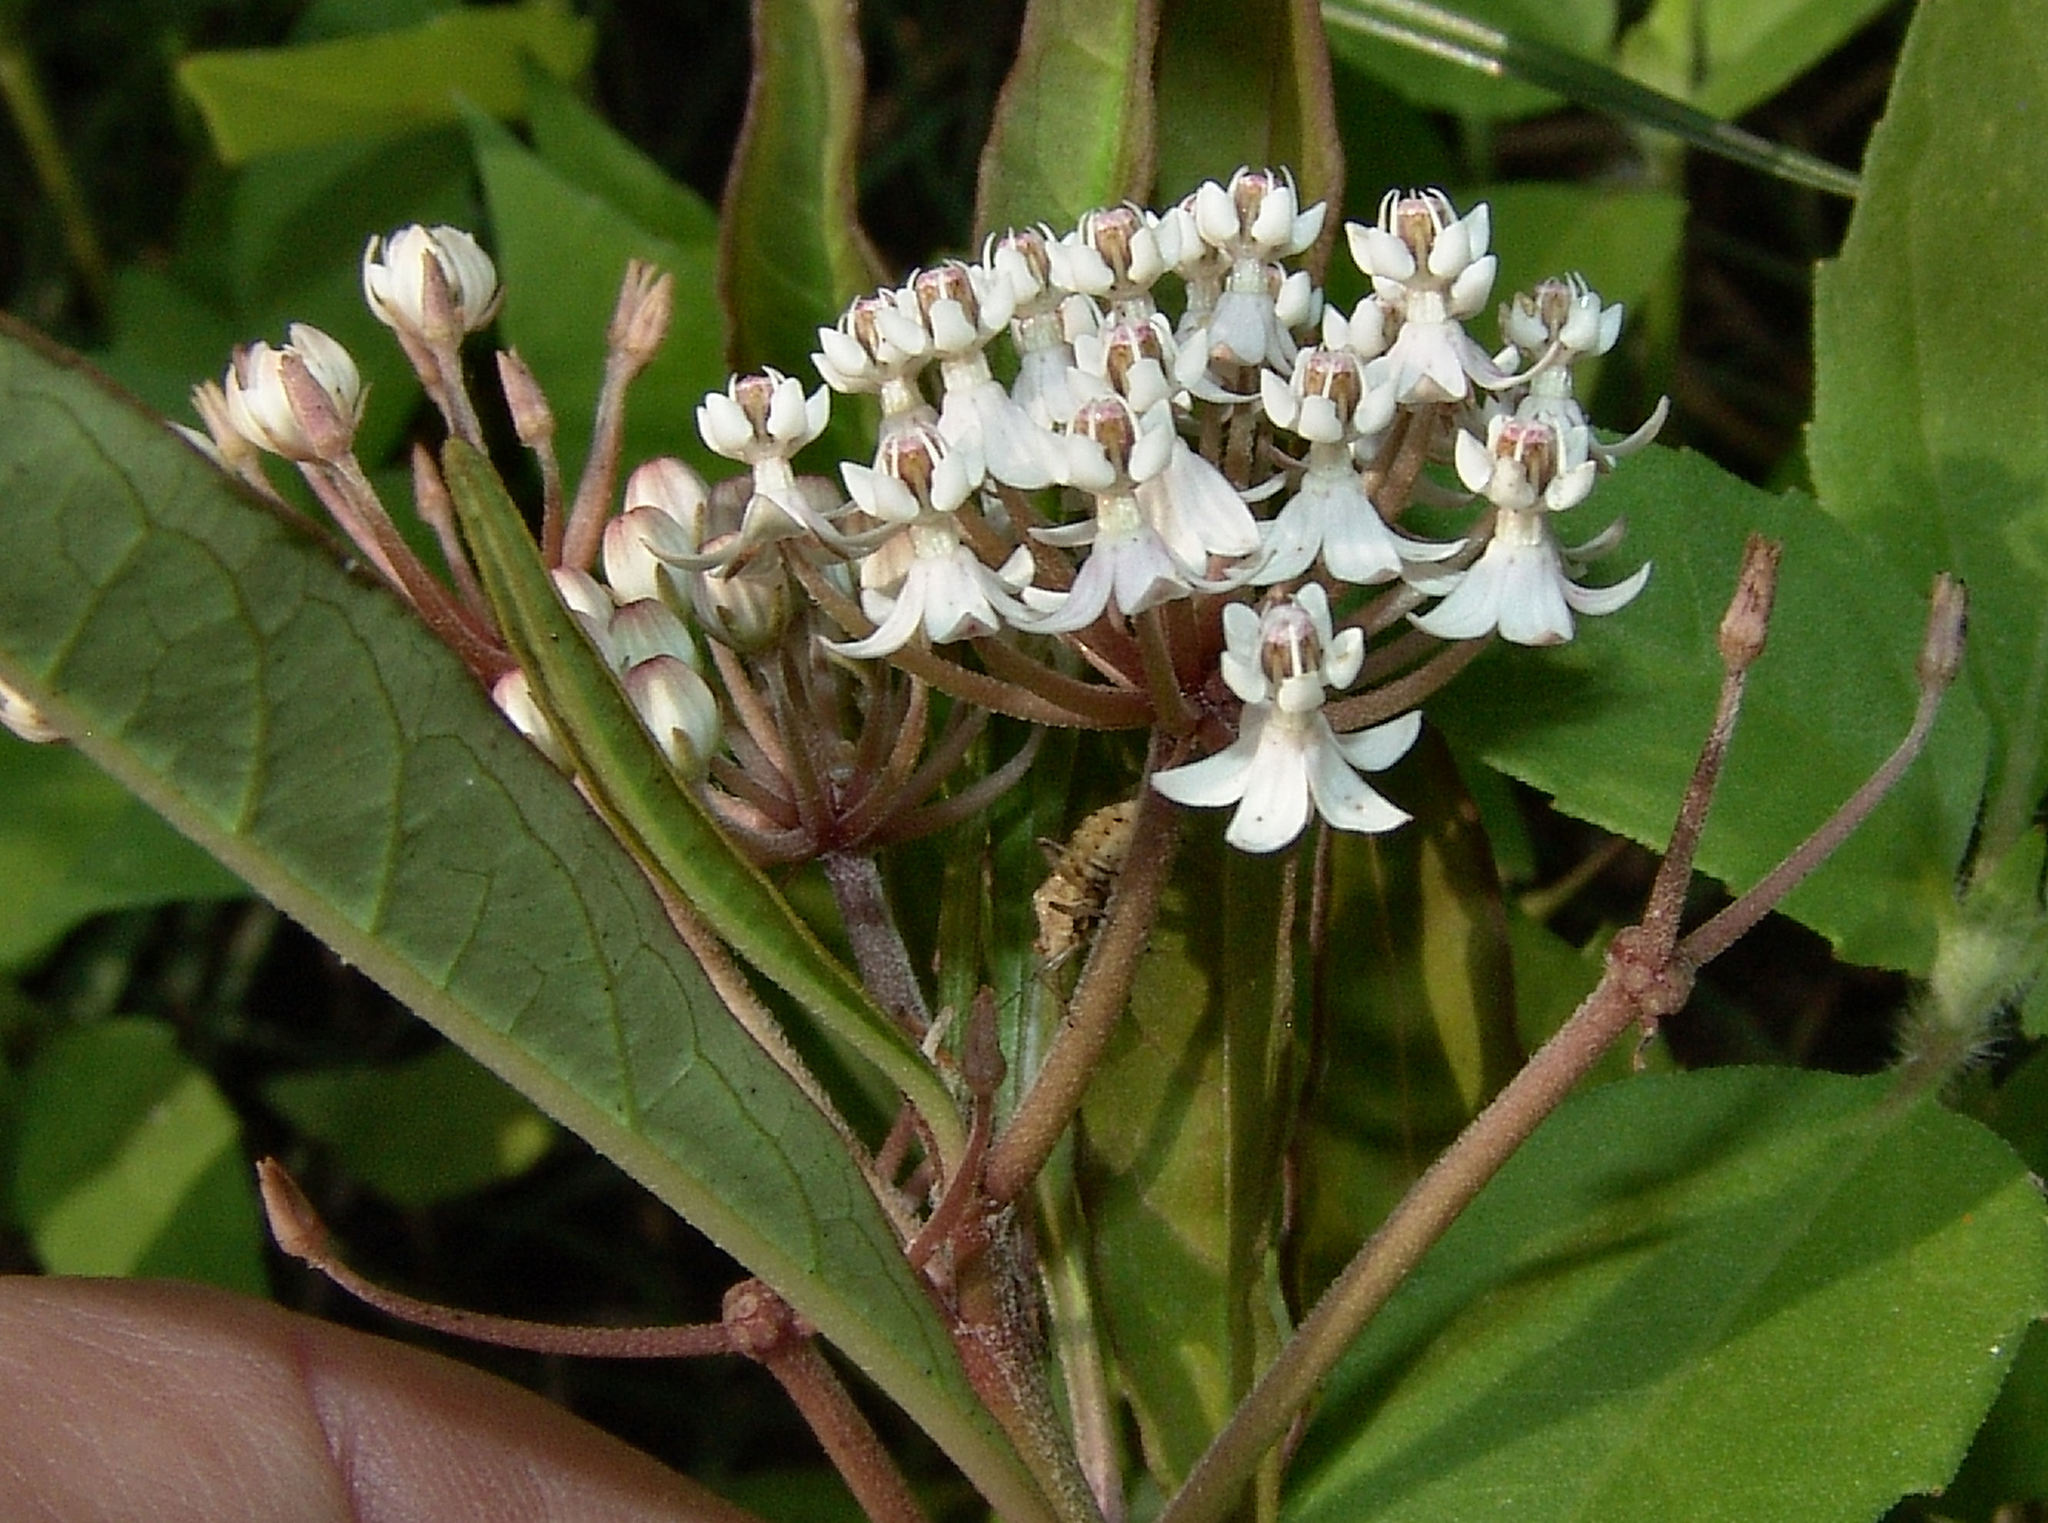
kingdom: Plantae
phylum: Tracheophyta
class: Magnoliopsida
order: Gentianales
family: Apocynaceae
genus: Asclepias
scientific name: Asclepias perennis
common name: Smooth-seed milkweed
